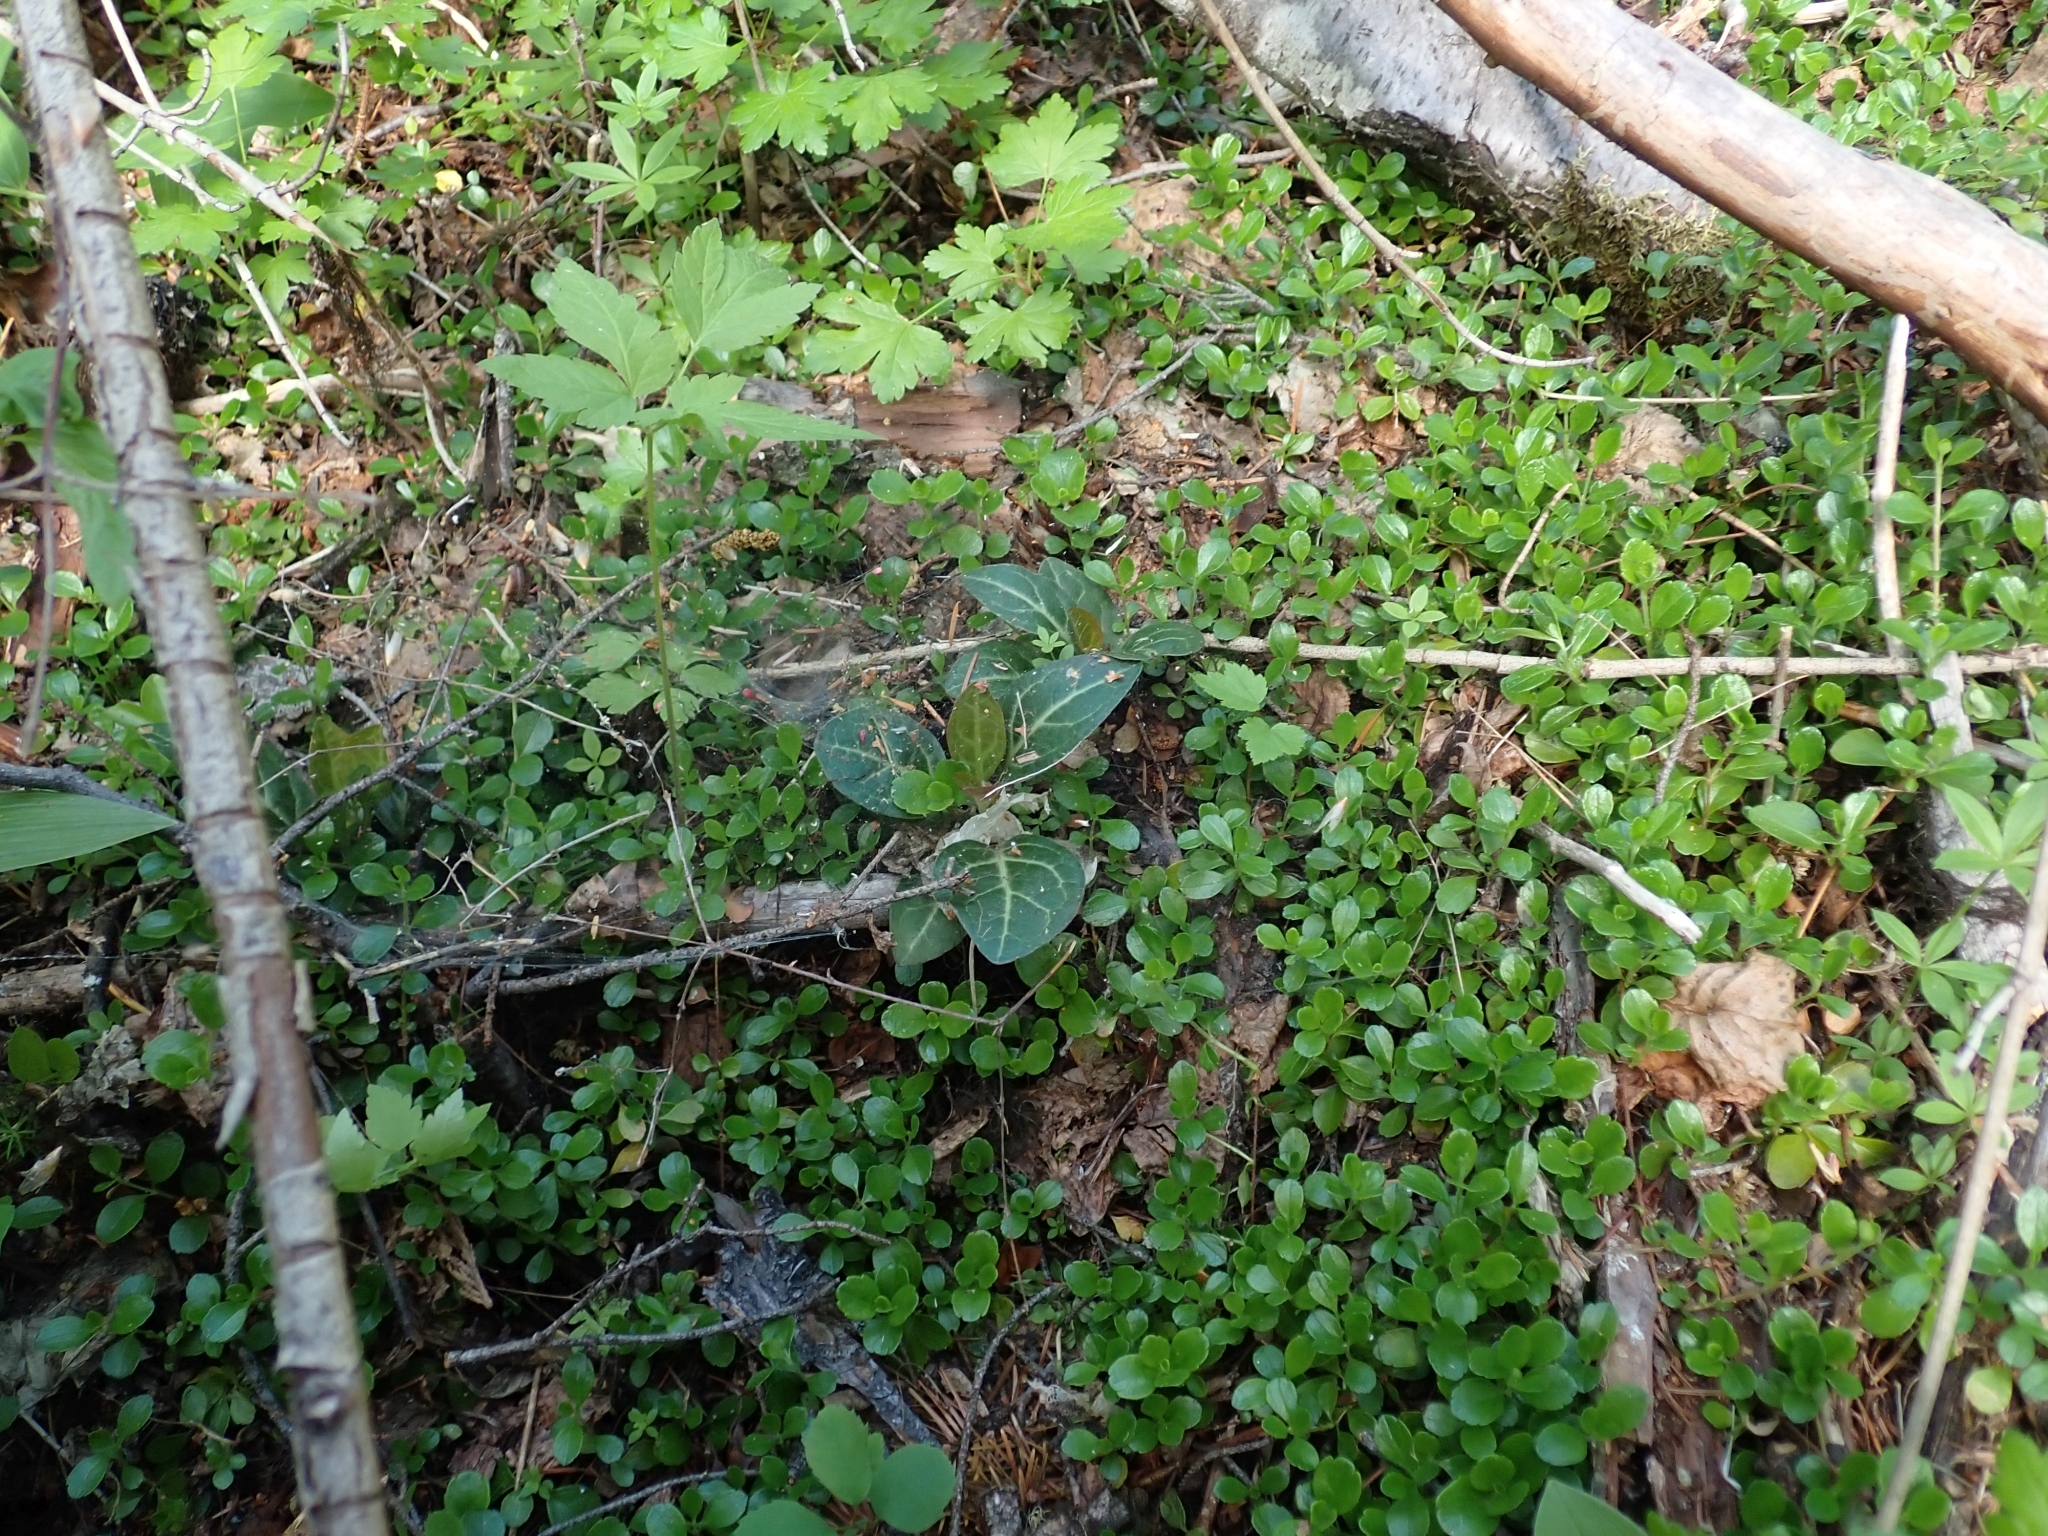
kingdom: Plantae
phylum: Tracheophyta
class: Magnoliopsida
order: Ericales
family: Ericaceae
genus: Pyrola
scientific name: Pyrola picta
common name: White-vein wintergreen
